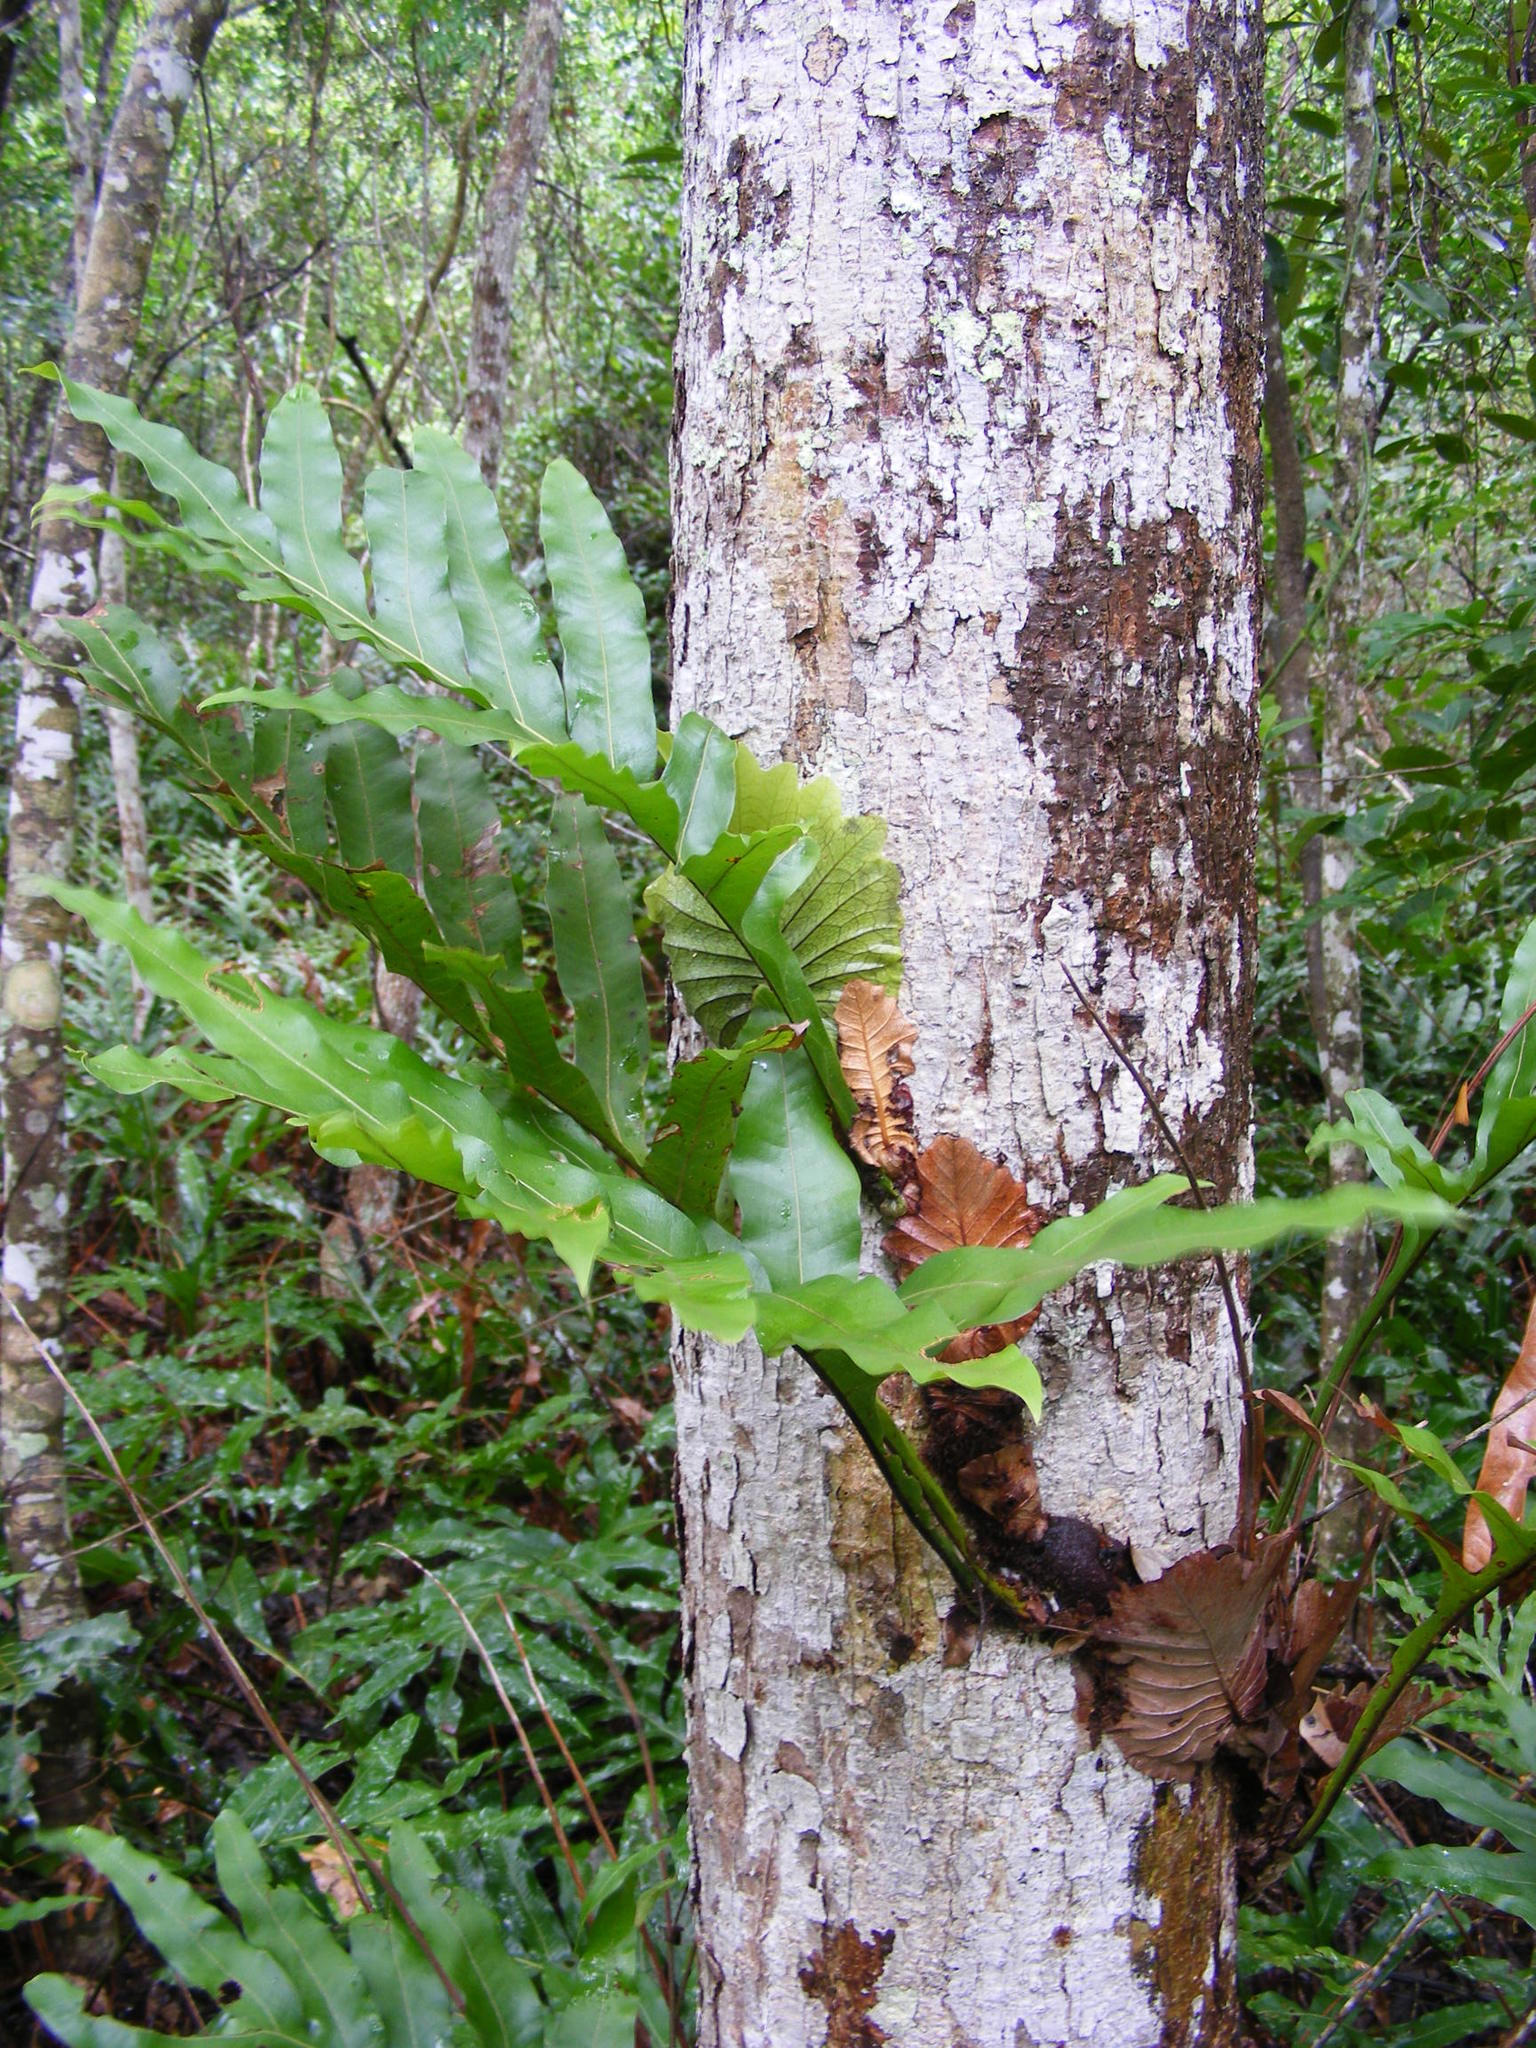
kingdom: Plantae
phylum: Tracheophyta
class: Polypodiopsida
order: Polypodiales
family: Polypodiaceae
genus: Drynaria
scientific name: Drynaria quercifolia
